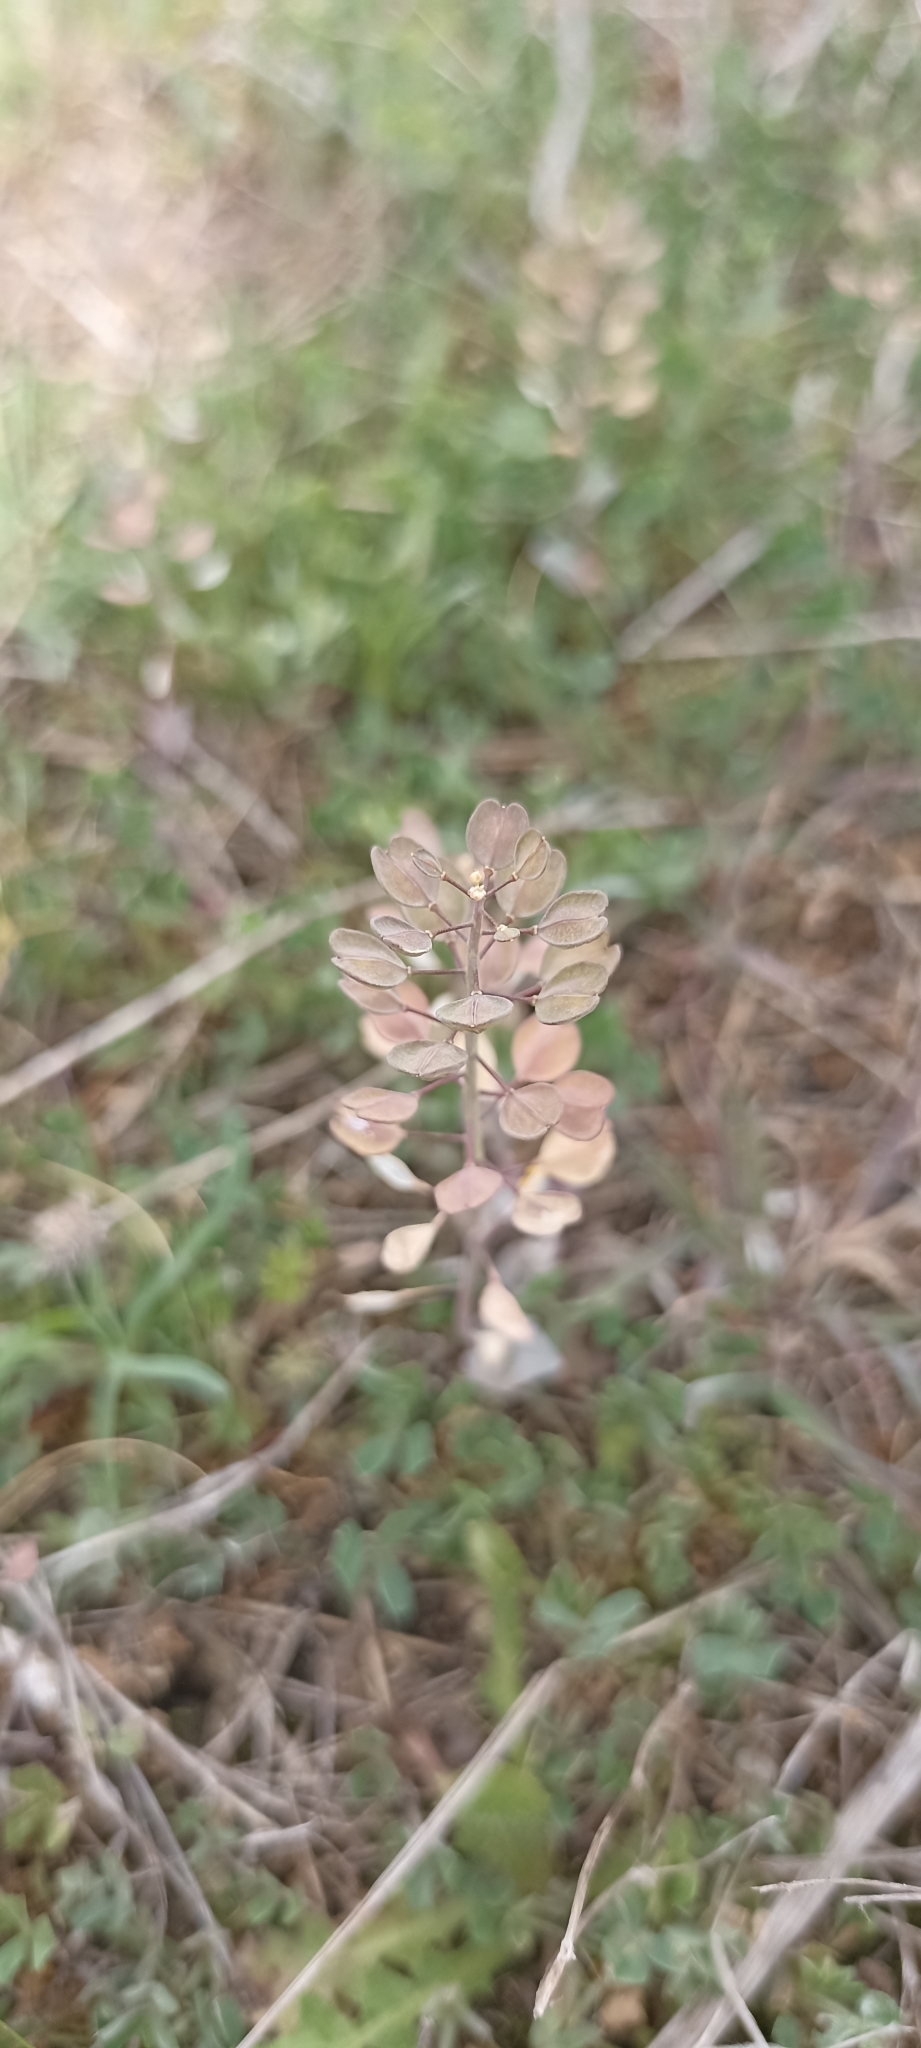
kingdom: Plantae
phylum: Tracheophyta
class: Magnoliopsida
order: Brassicales
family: Brassicaceae
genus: Noccaea
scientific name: Noccaea perfoliata
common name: Perfoliate pennycress
